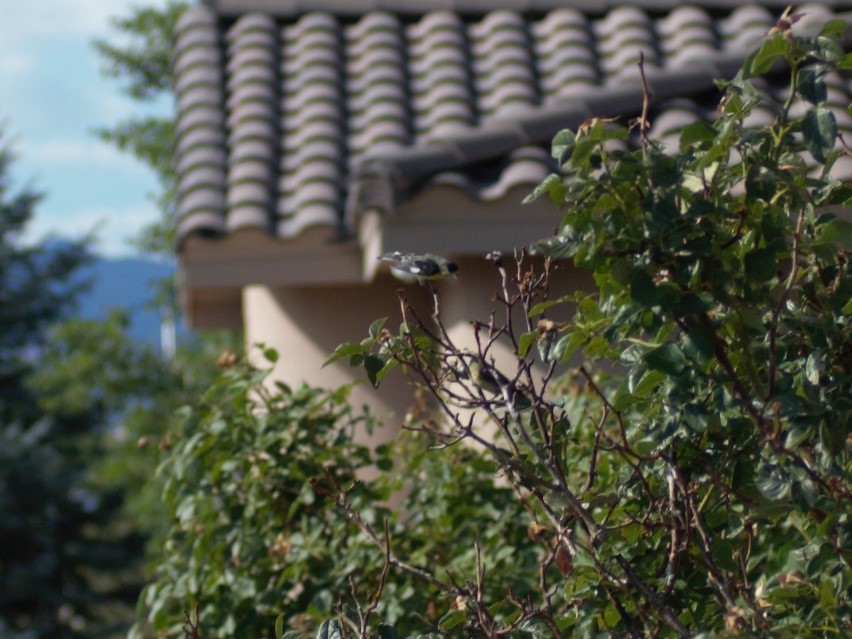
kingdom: Animalia
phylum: Chordata
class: Aves
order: Passeriformes
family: Fringillidae
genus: Spinus
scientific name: Spinus psaltria
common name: Lesser goldfinch
